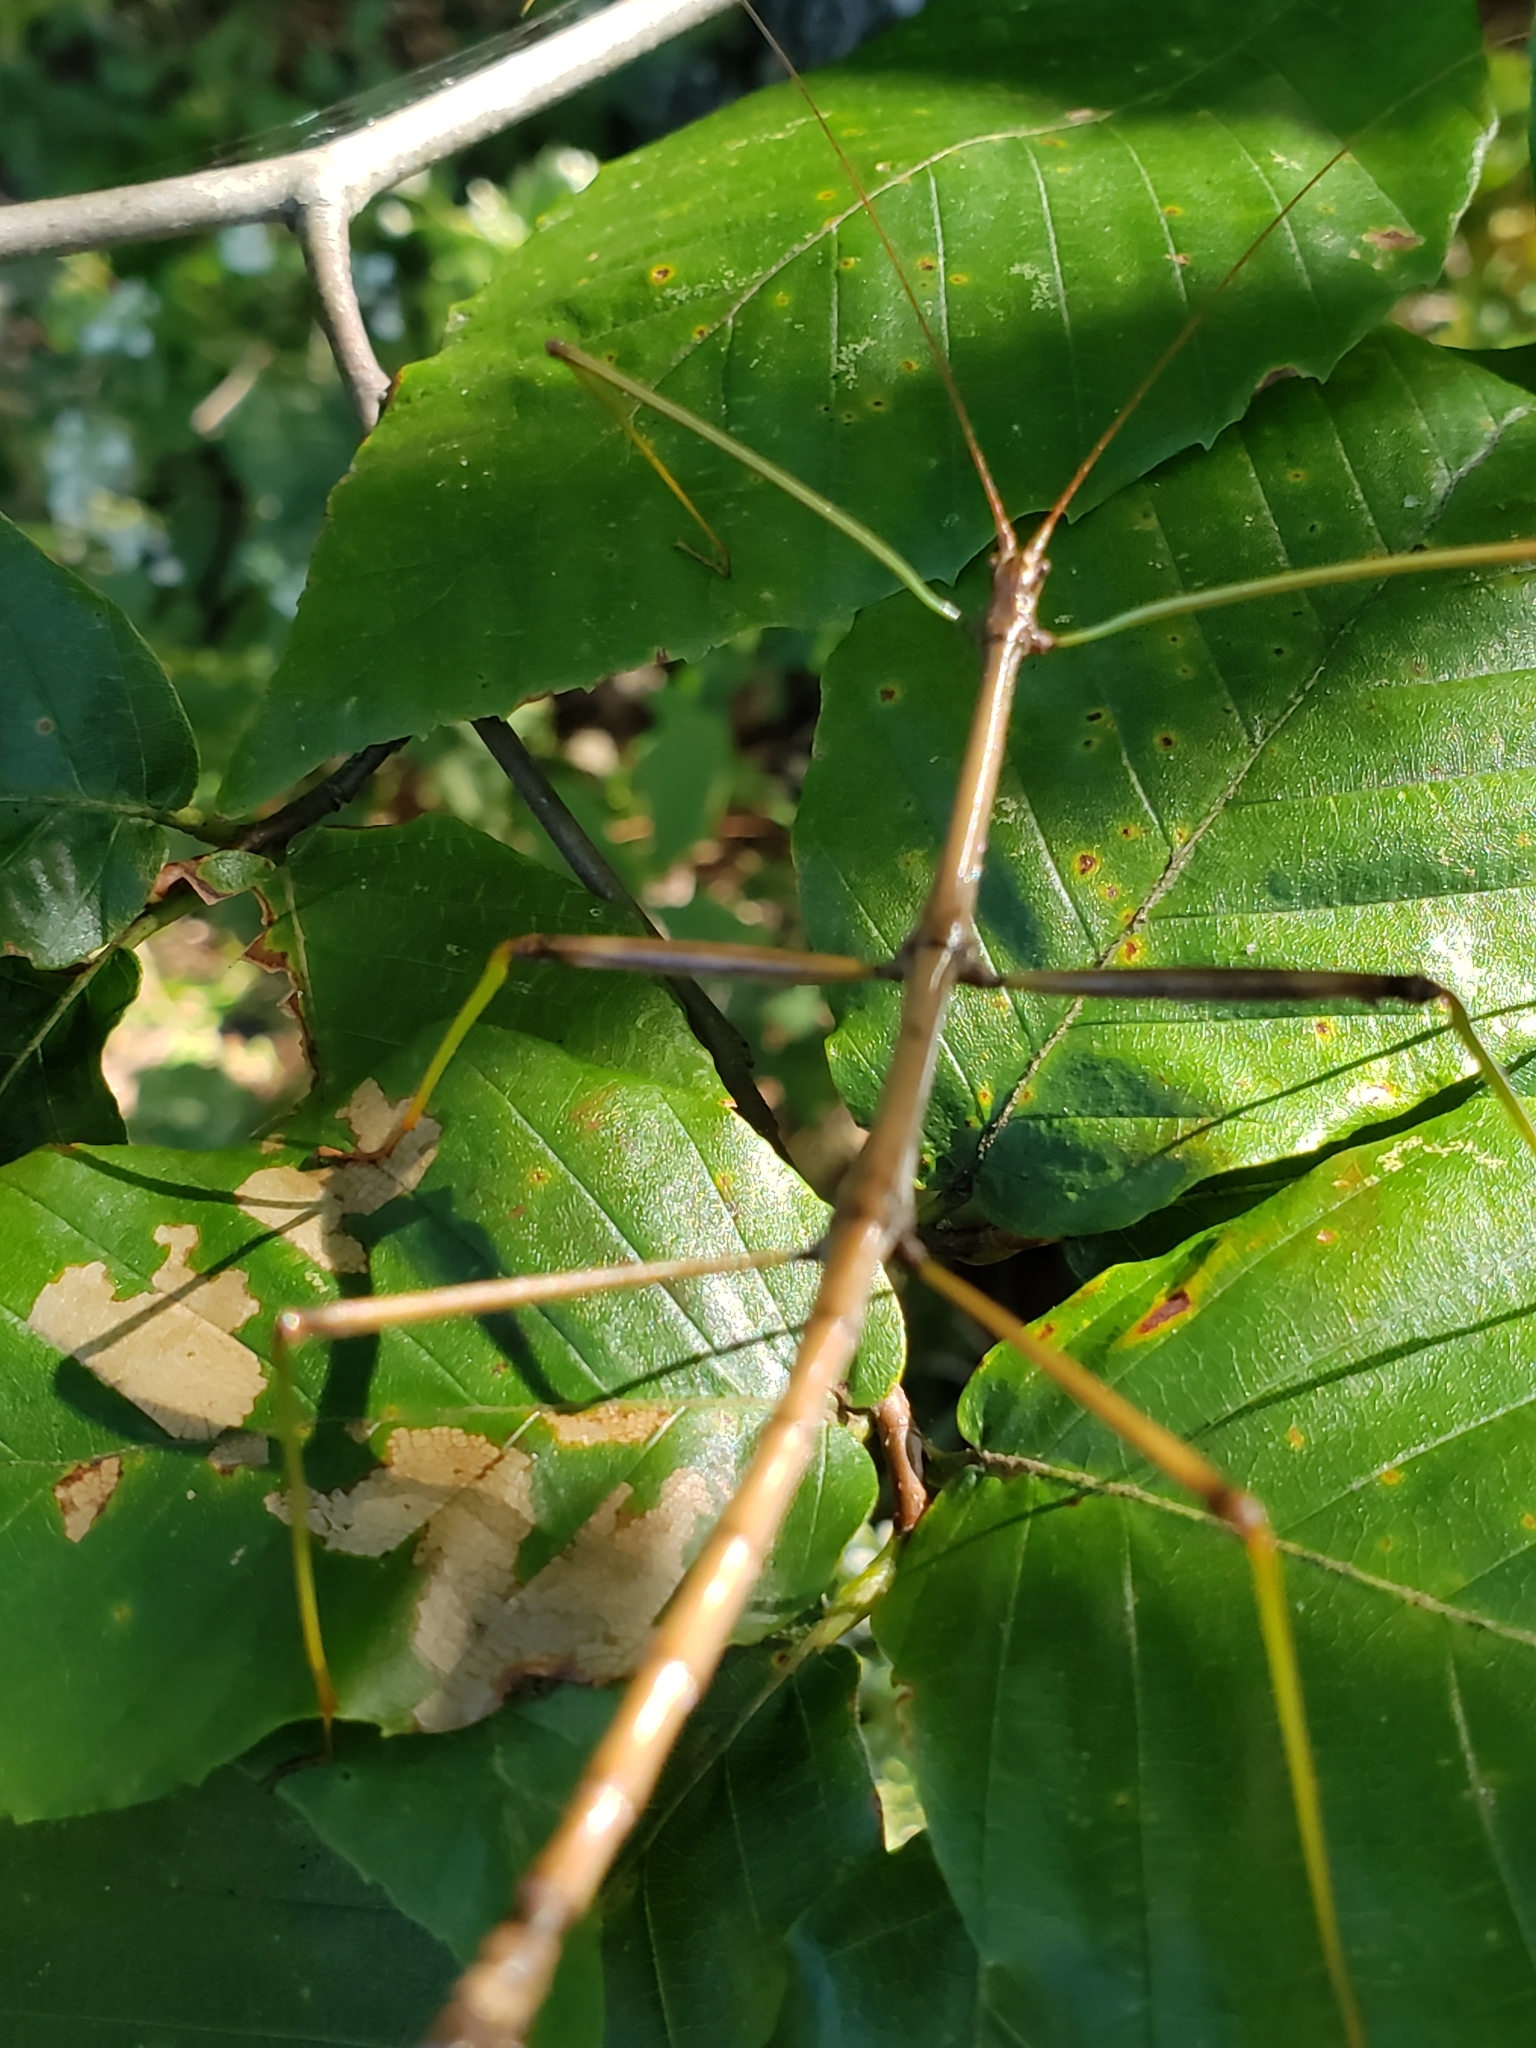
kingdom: Animalia
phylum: Arthropoda
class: Insecta
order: Phasmida
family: Diapheromeridae
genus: Diapheromera
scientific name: Diapheromera femorata
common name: Common american walkingstick
